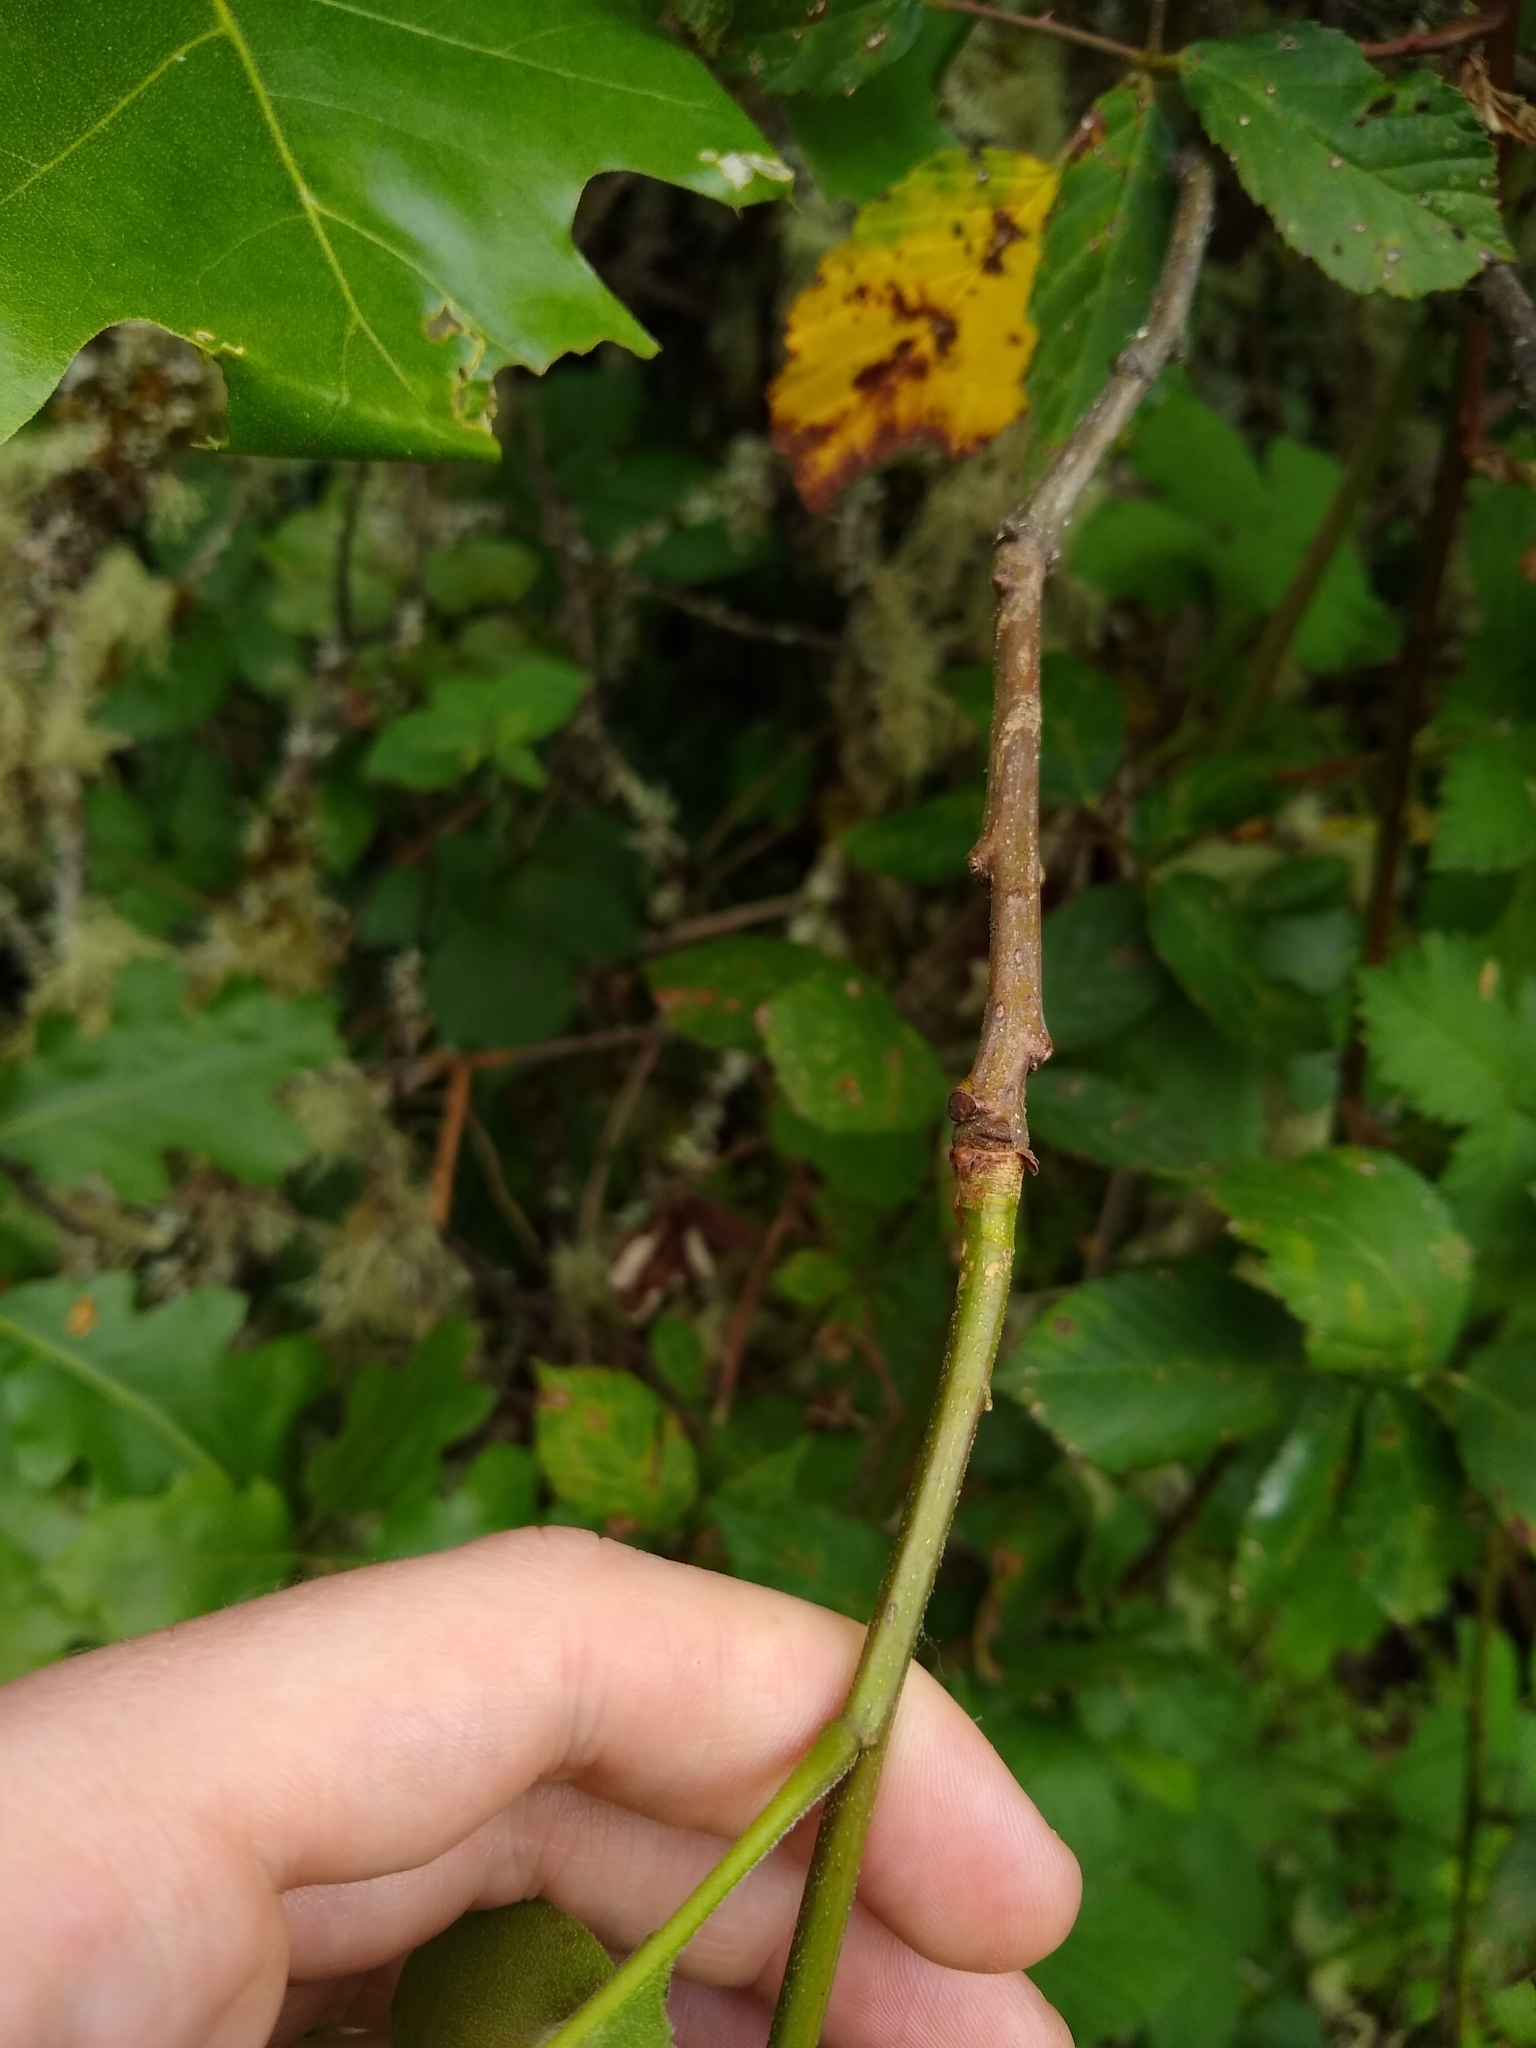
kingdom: Plantae
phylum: Tracheophyta
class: Magnoliopsida
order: Fagales
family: Fagaceae
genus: Quercus
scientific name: Quercus kelloggii
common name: California black oak
